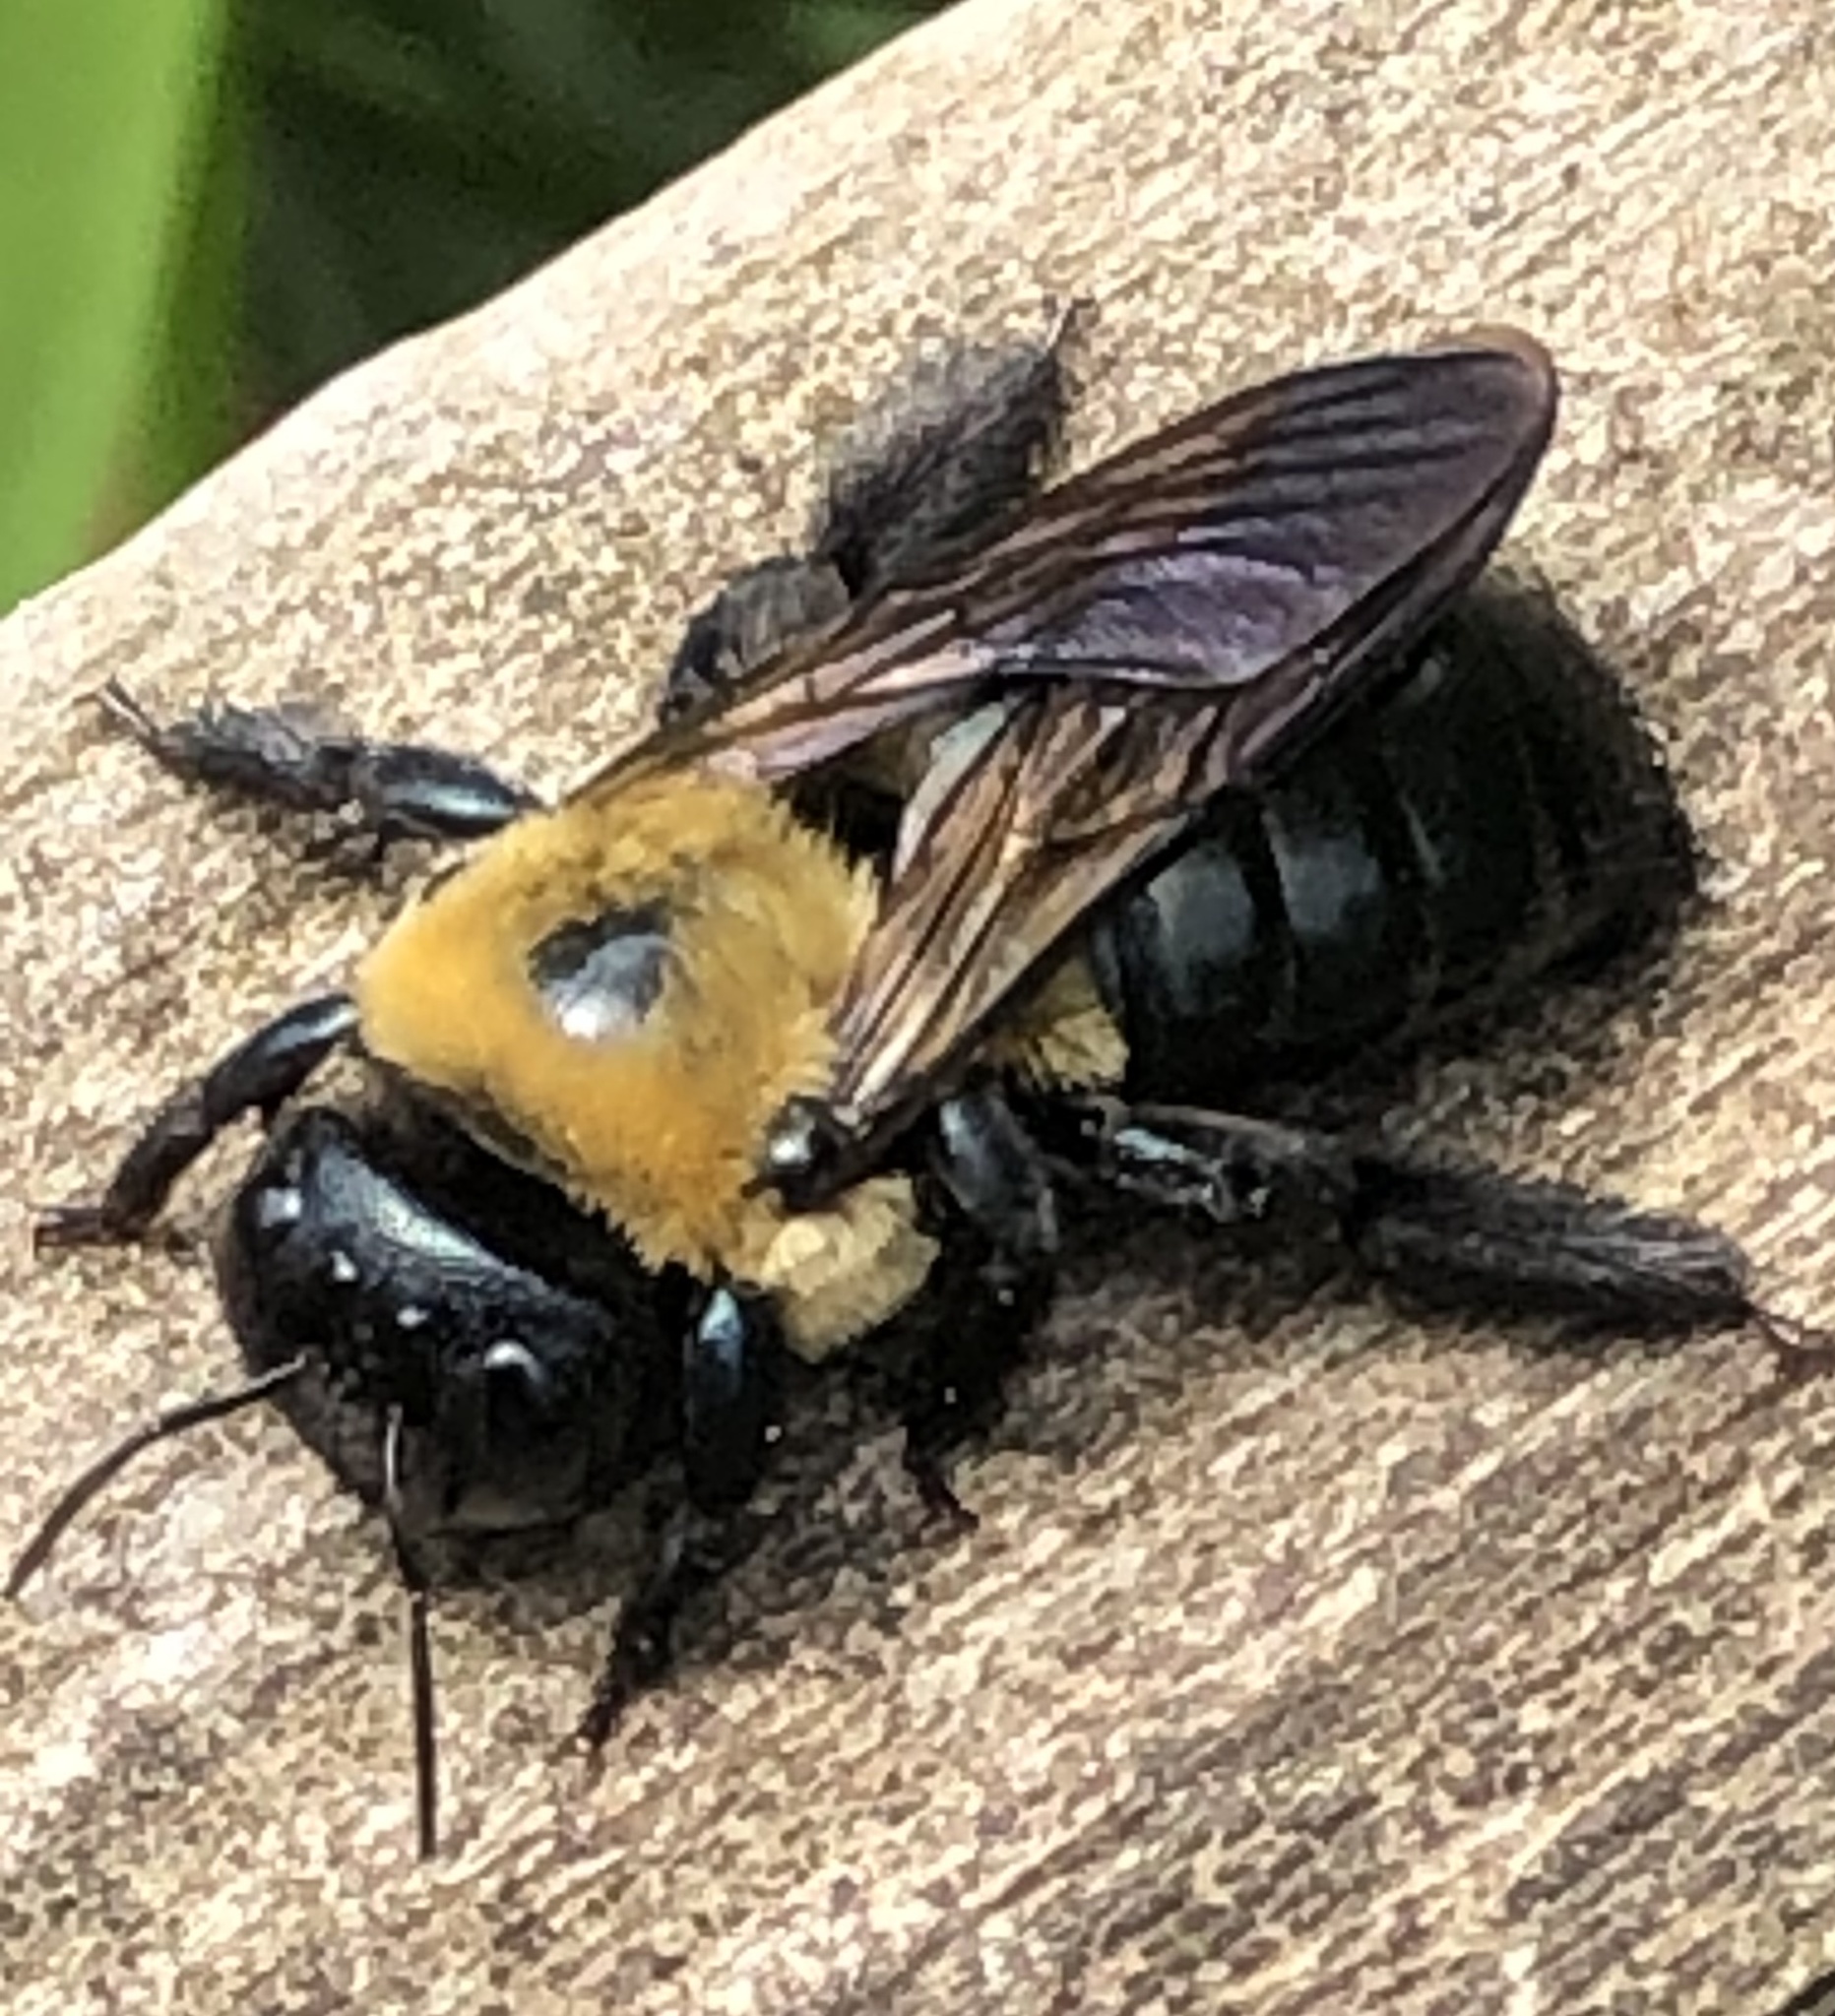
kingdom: Animalia
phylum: Arthropoda
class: Insecta
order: Hymenoptera
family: Apidae
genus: Xylocopa
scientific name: Xylocopa virginica
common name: Carpenter bee
